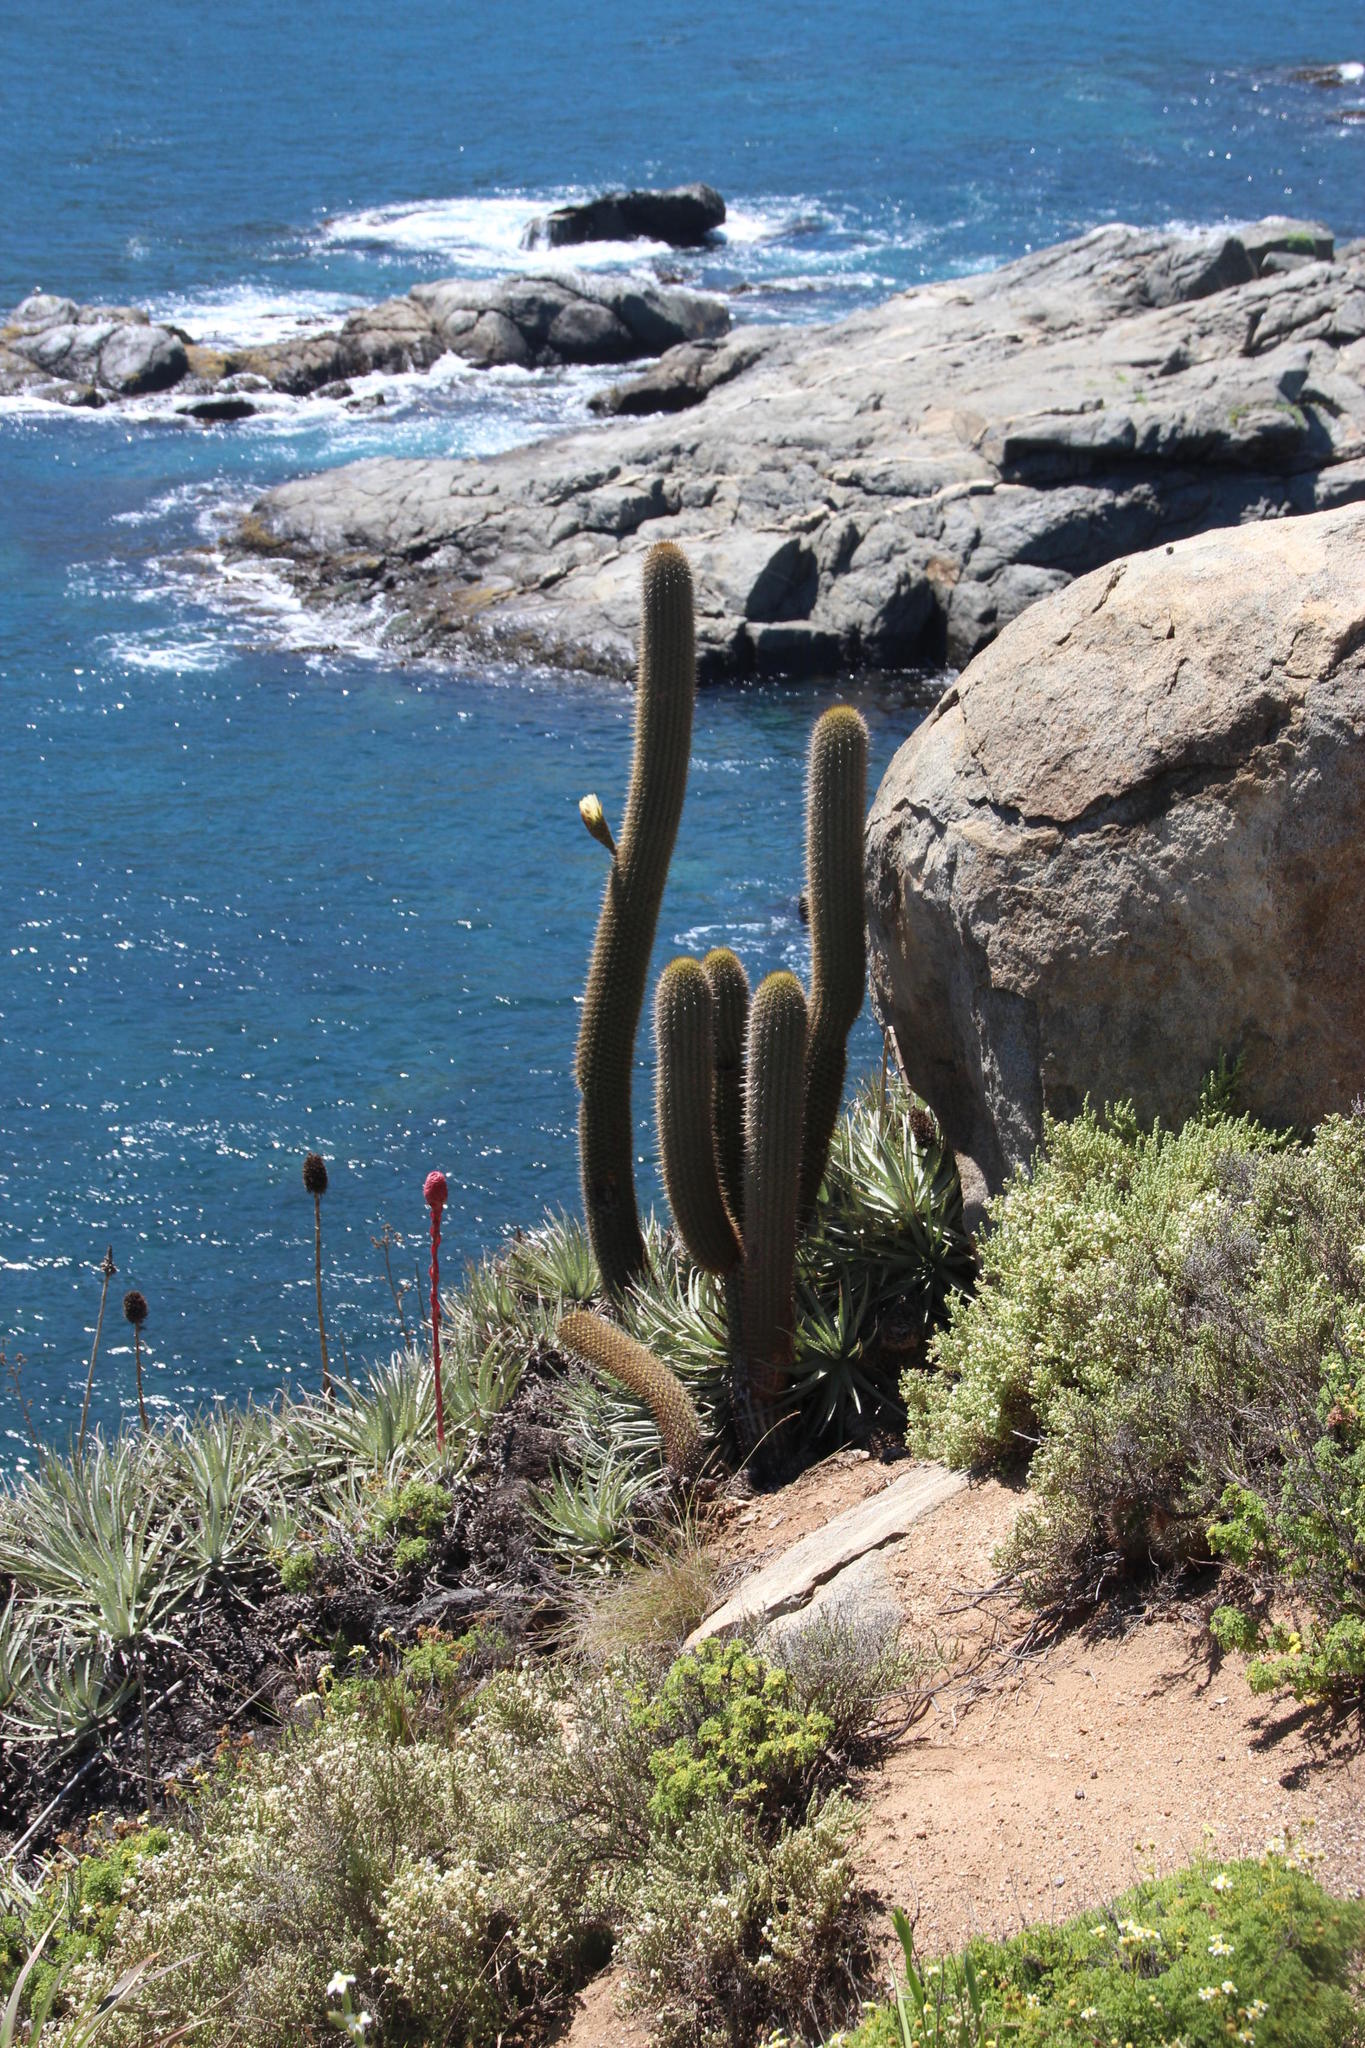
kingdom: Plantae
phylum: Tracheophyta
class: Magnoliopsida
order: Caryophyllales
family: Cactaceae
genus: Leucostele
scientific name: Leucostele litoralis
